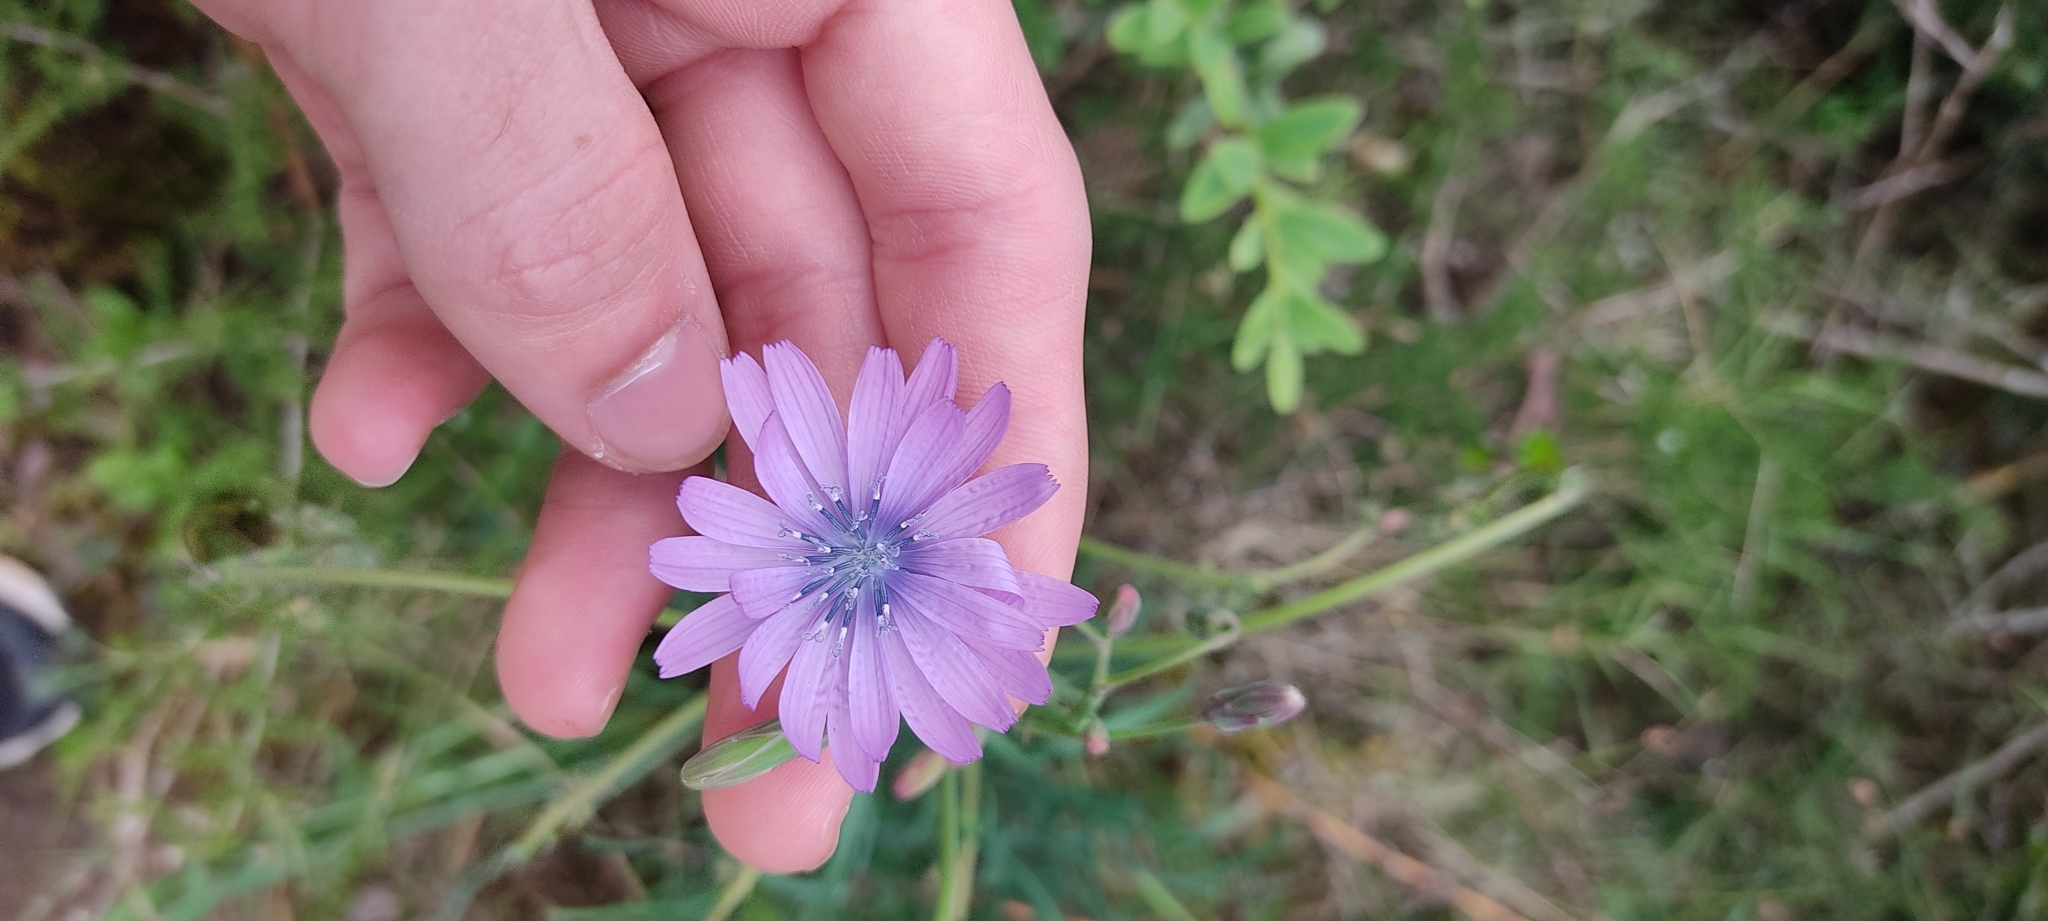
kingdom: Plantae
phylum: Tracheophyta
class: Magnoliopsida
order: Asterales
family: Asteraceae
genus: Lactuca
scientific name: Lactuca perennis
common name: Mountain lettuce
